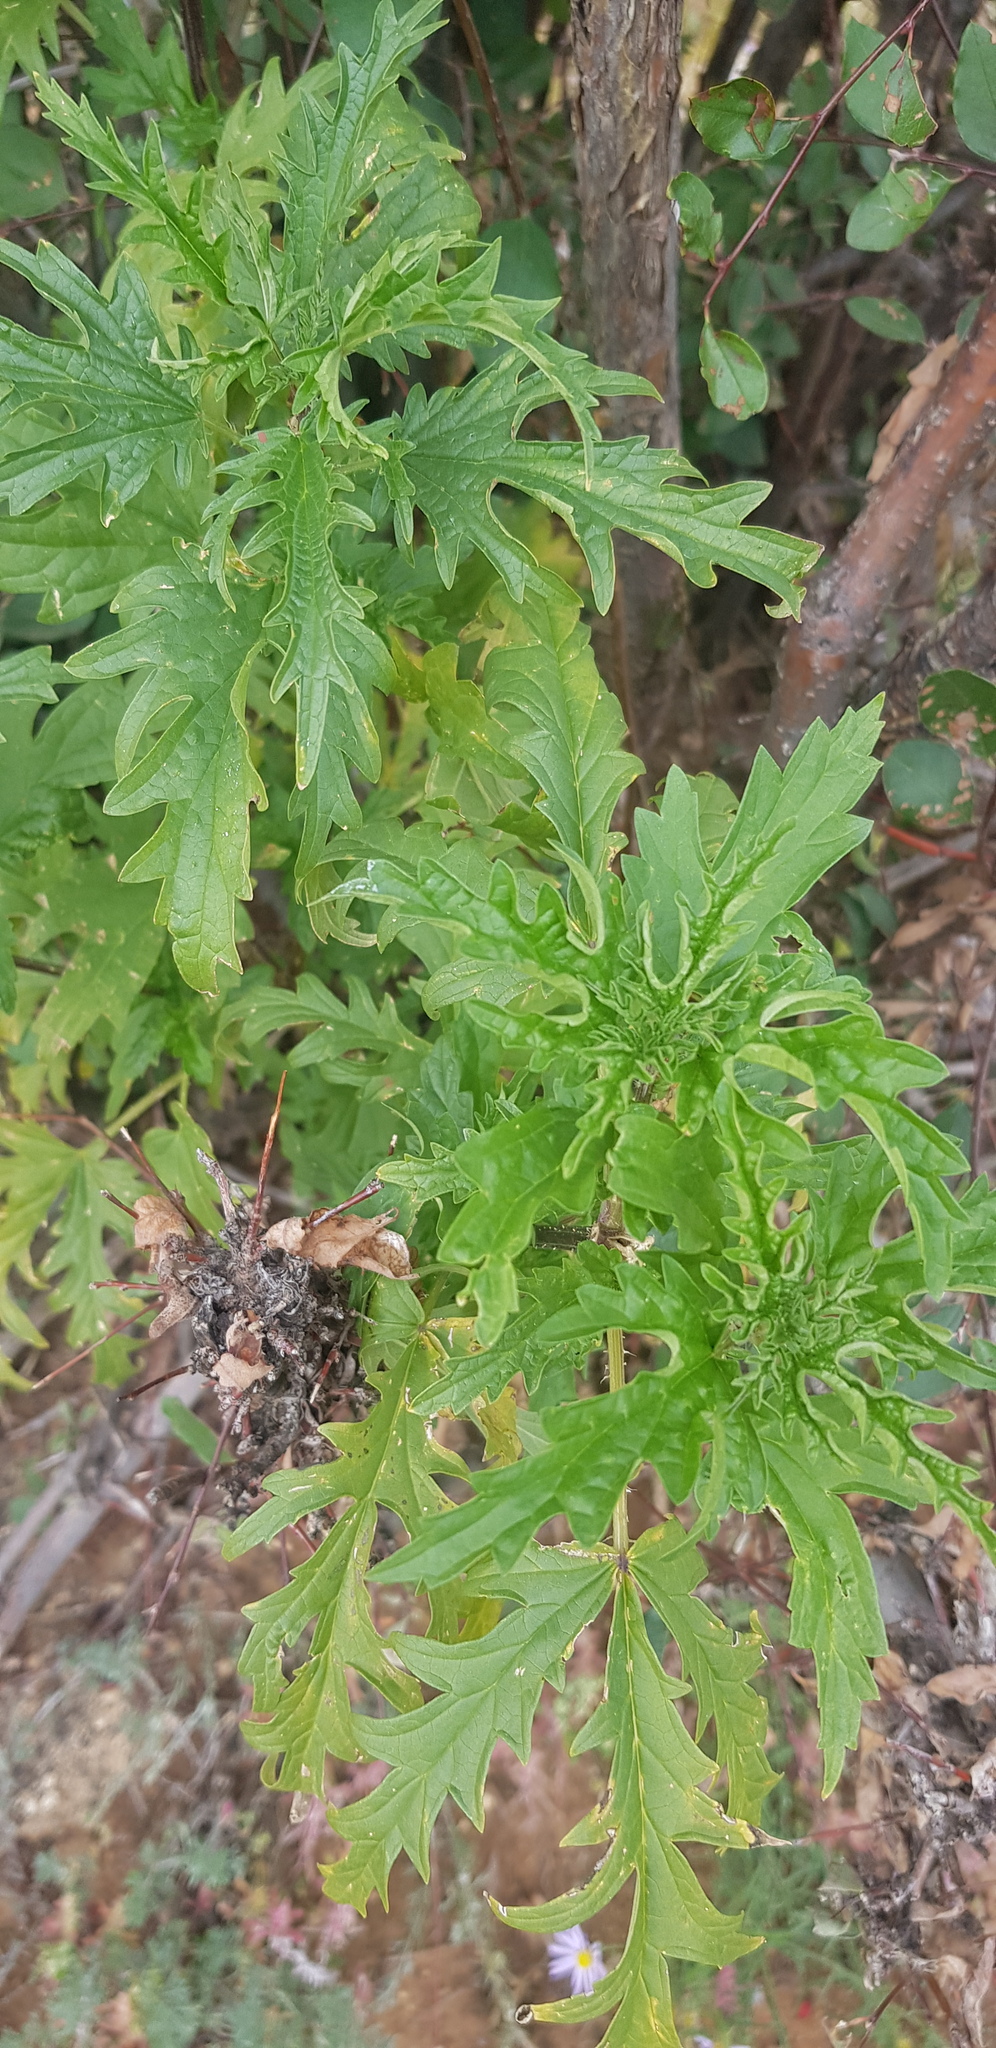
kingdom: Plantae
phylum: Tracheophyta
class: Magnoliopsida
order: Rosales
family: Urticaceae
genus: Urtica
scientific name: Urtica cannabina
